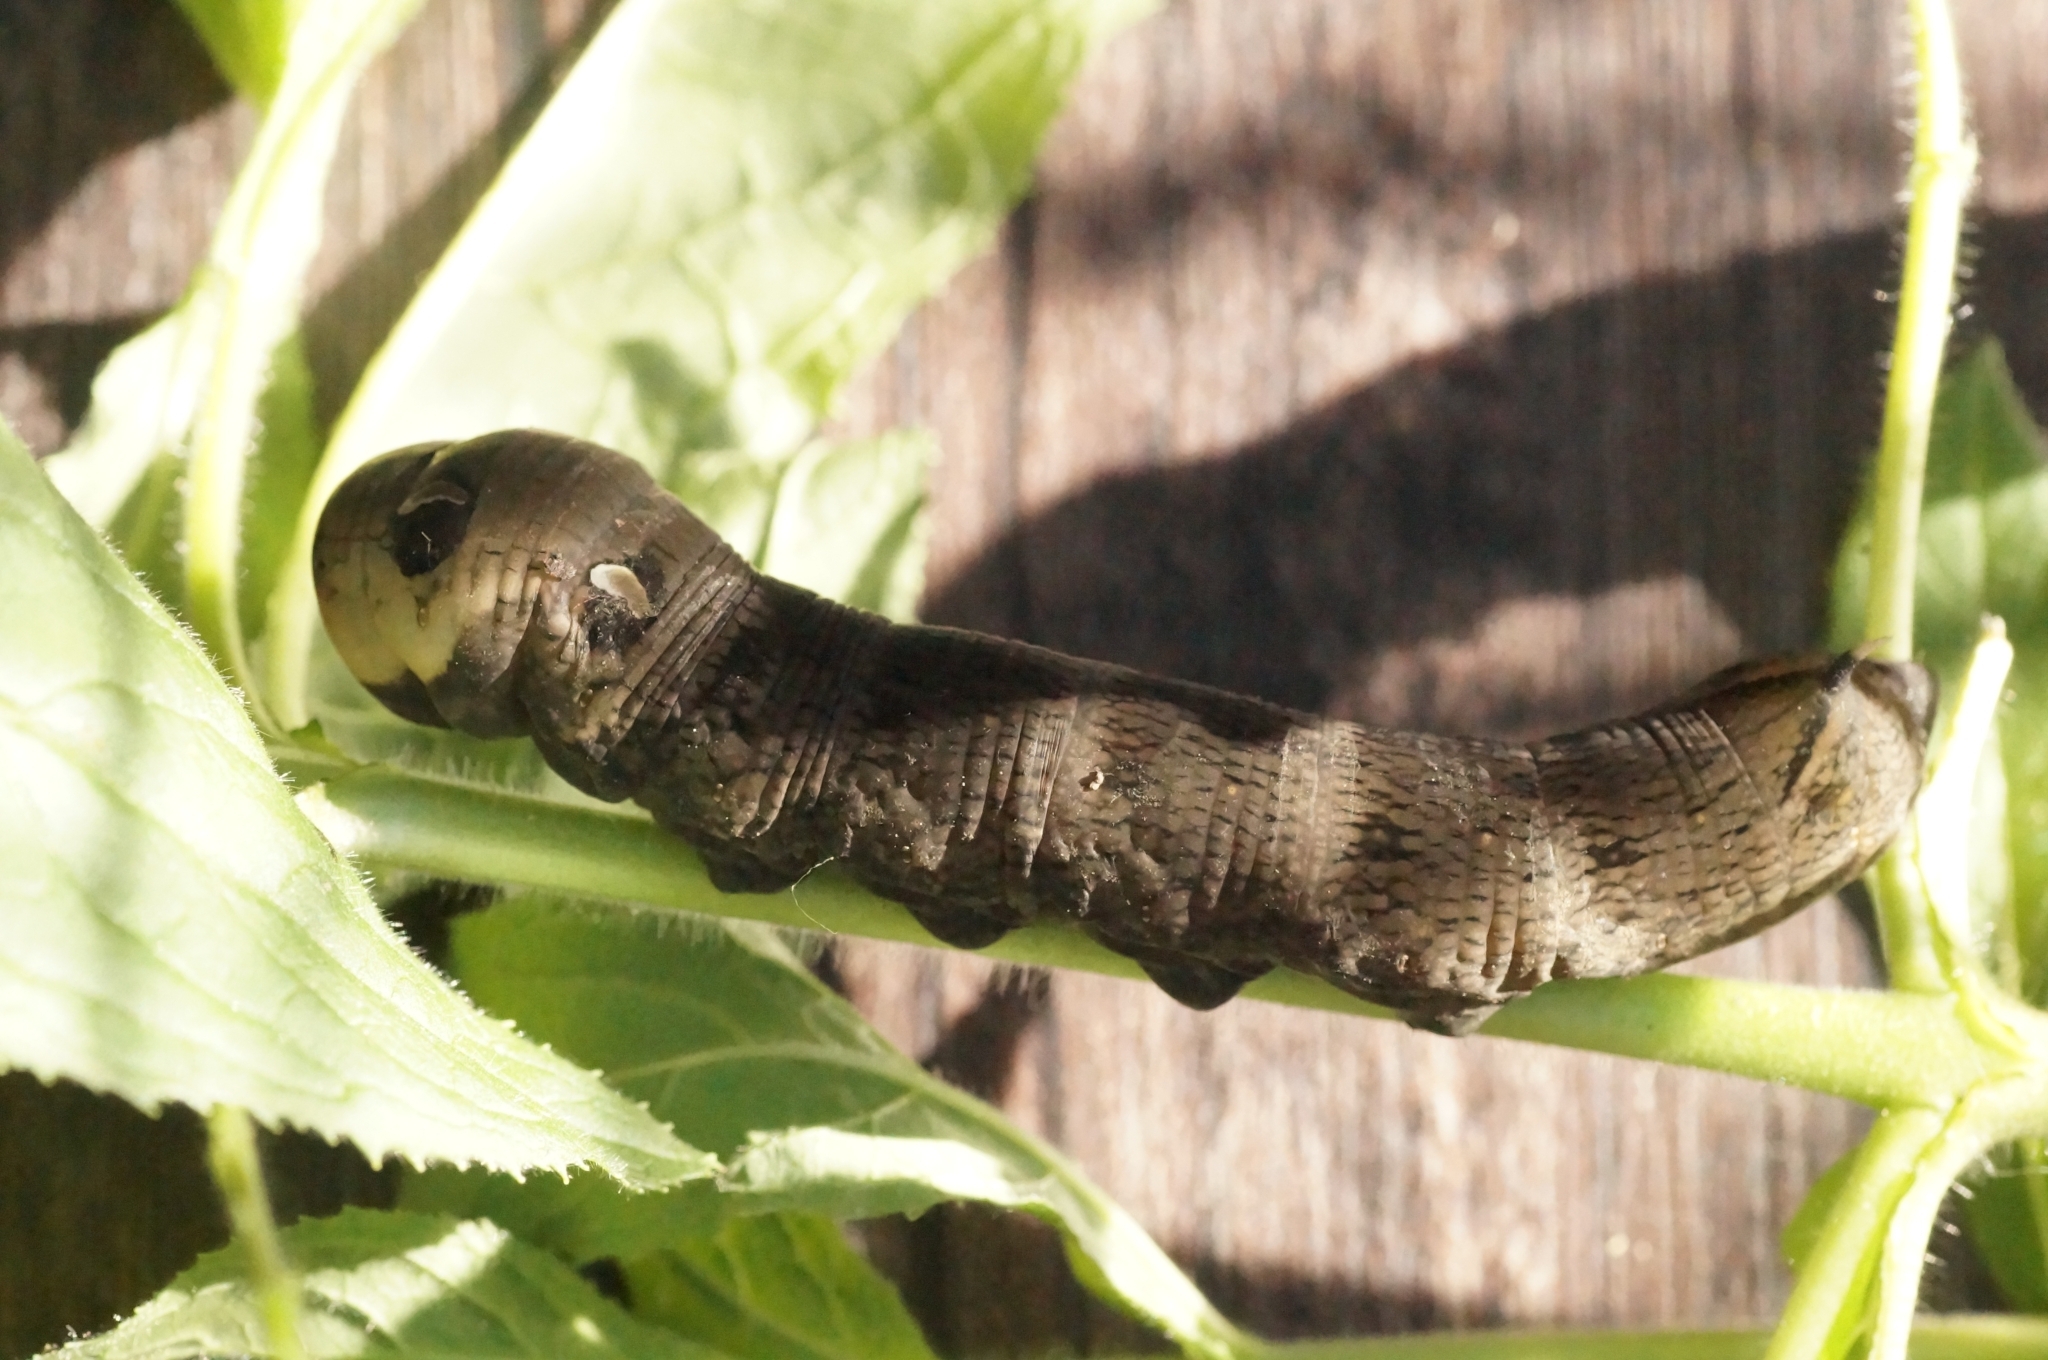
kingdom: Animalia
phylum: Arthropoda
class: Insecta
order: Lepidoptera
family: Sphingidae
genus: Deilephila
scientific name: Deilephila elpenor
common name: Elephant hawk-moth
